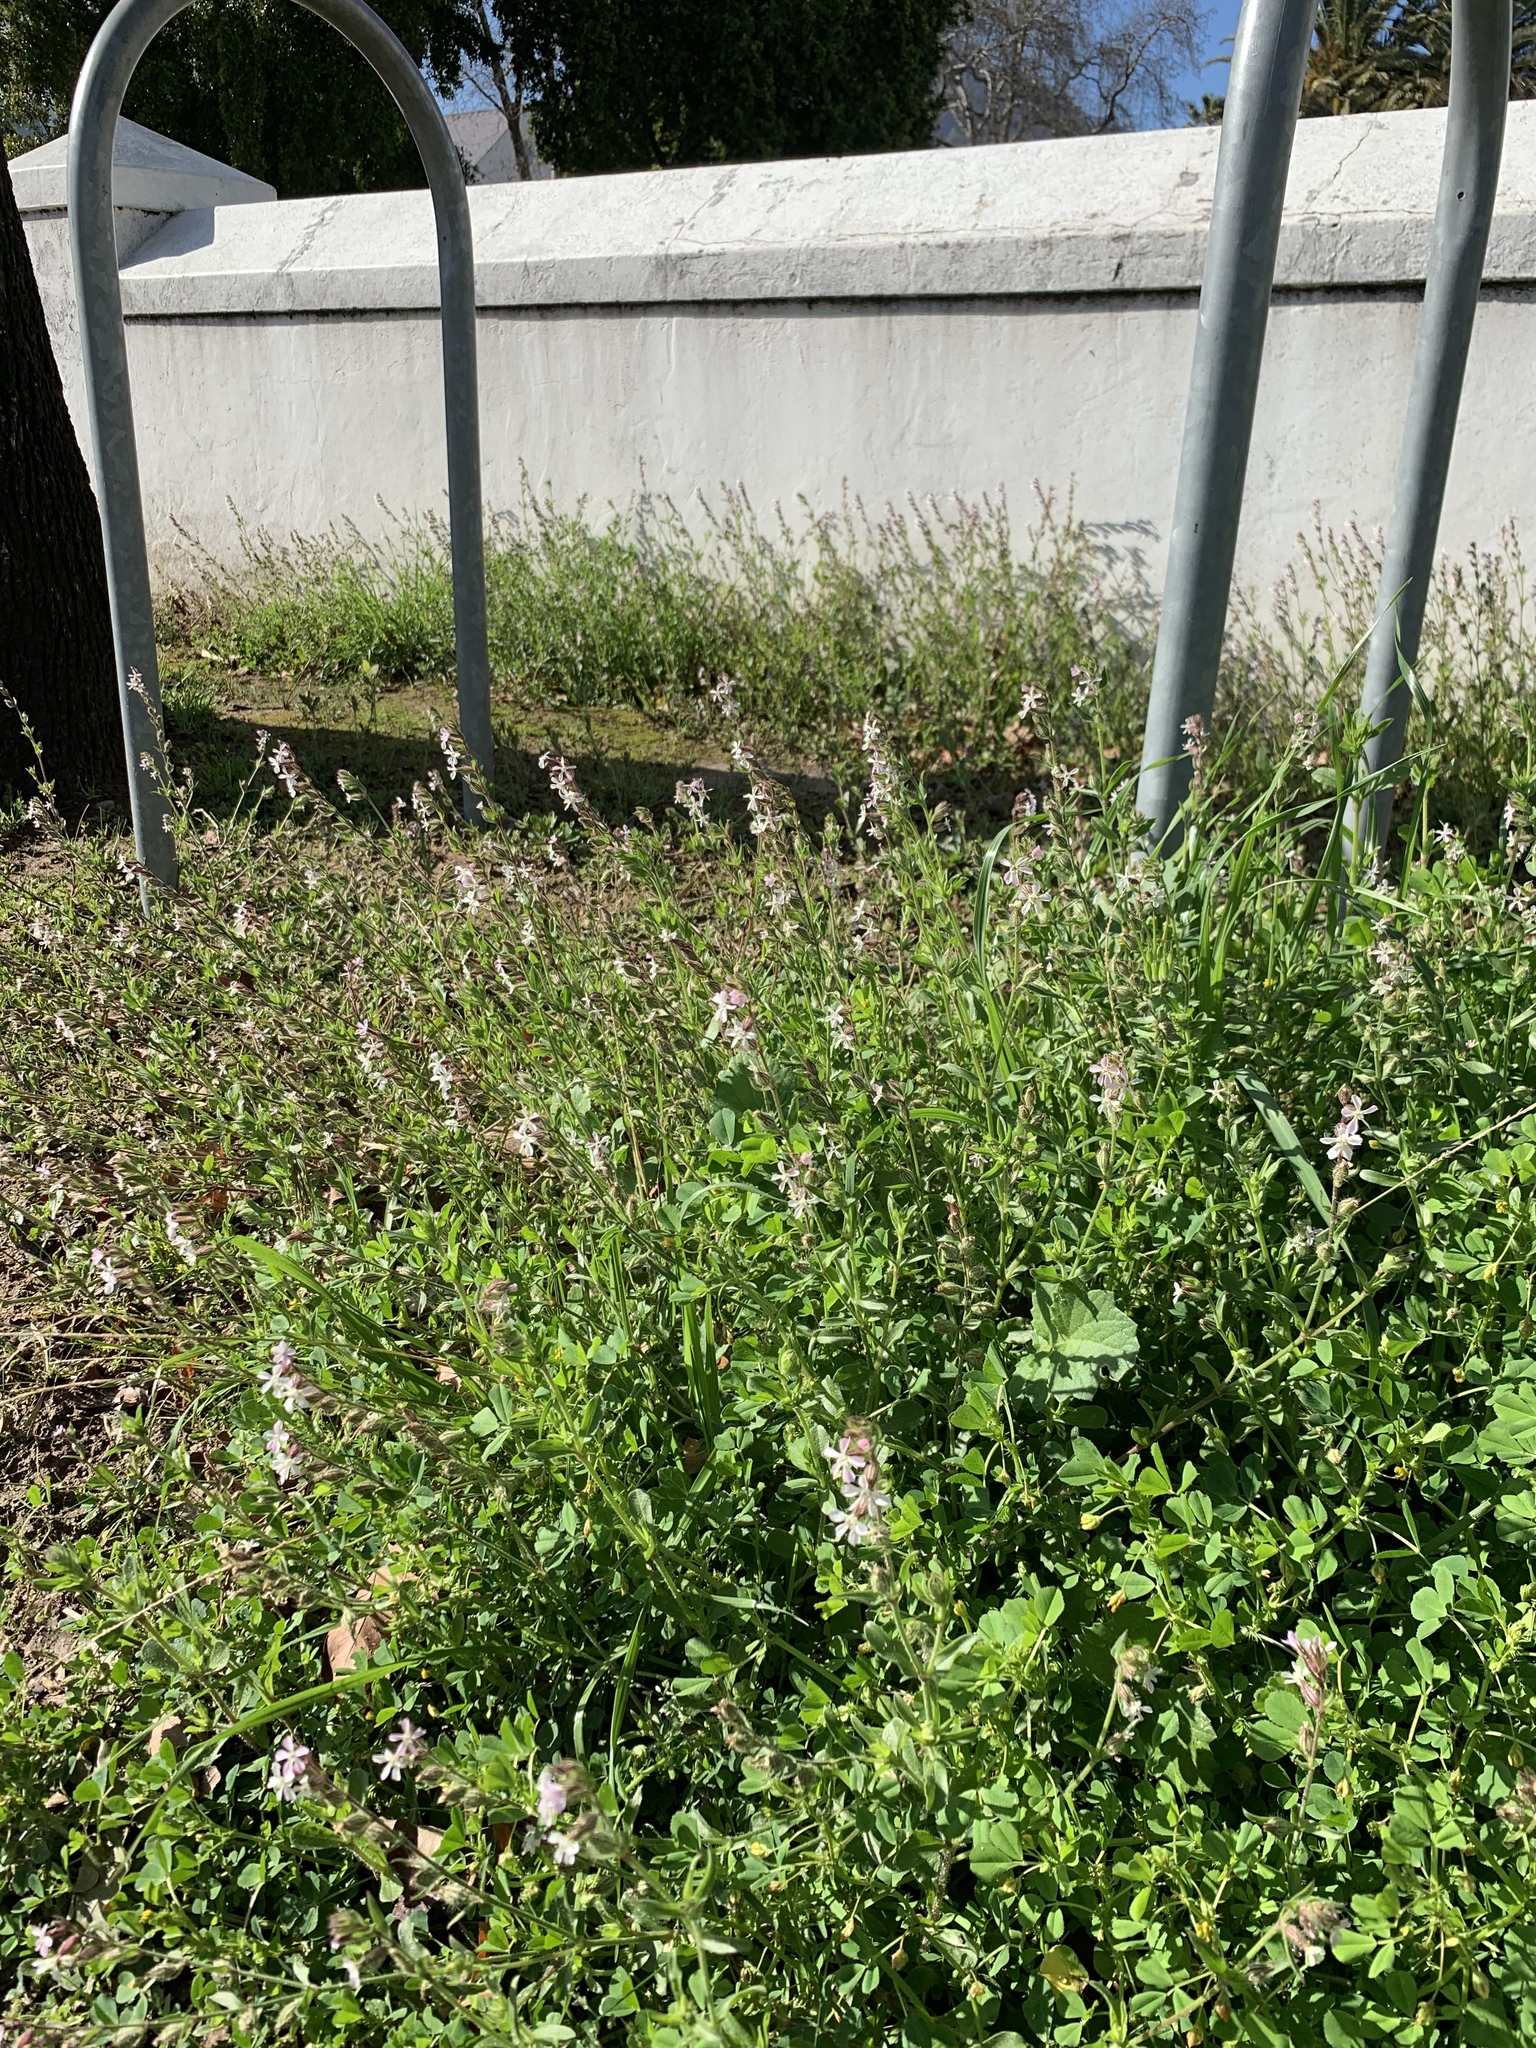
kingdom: Plantae
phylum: Tracheophyta
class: Magnoliopsida
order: Caryophyllales
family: Caryophyllaceae
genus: Silene
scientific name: Silene gallica
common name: Small-flowered catchfly
